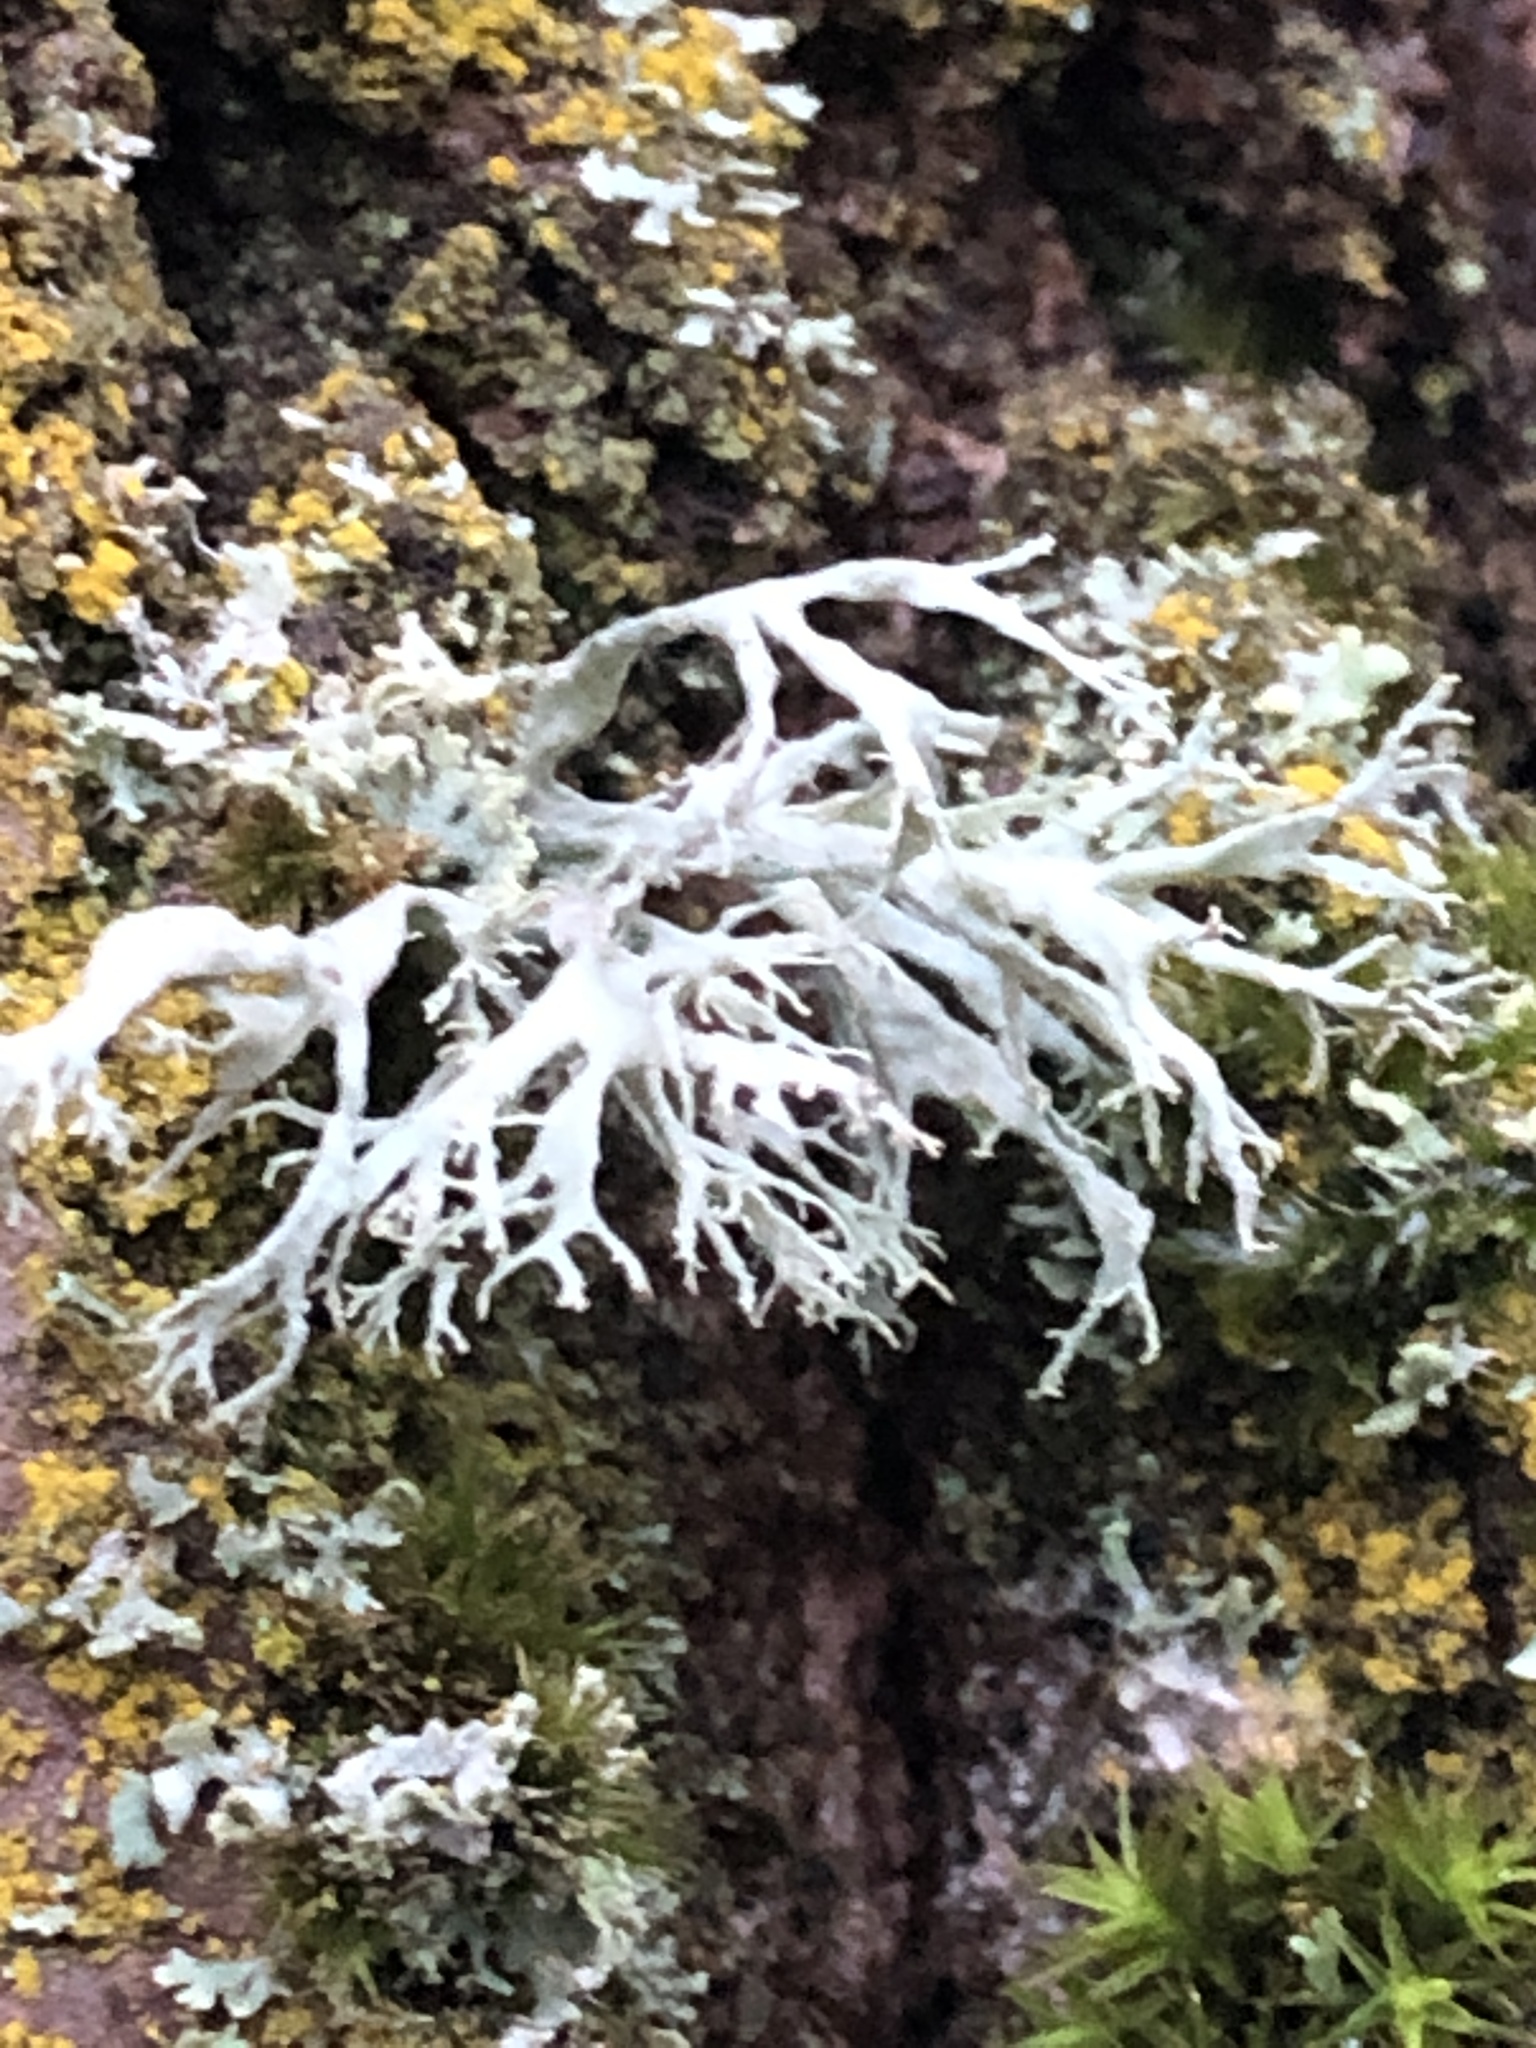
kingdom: Fungi
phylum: Ascomycota
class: Lecanoromycetes
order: Lecanorales
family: Ramalinaceae
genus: Ramalina
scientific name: Ramalina farinacea
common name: Farinose cartilage lichen
